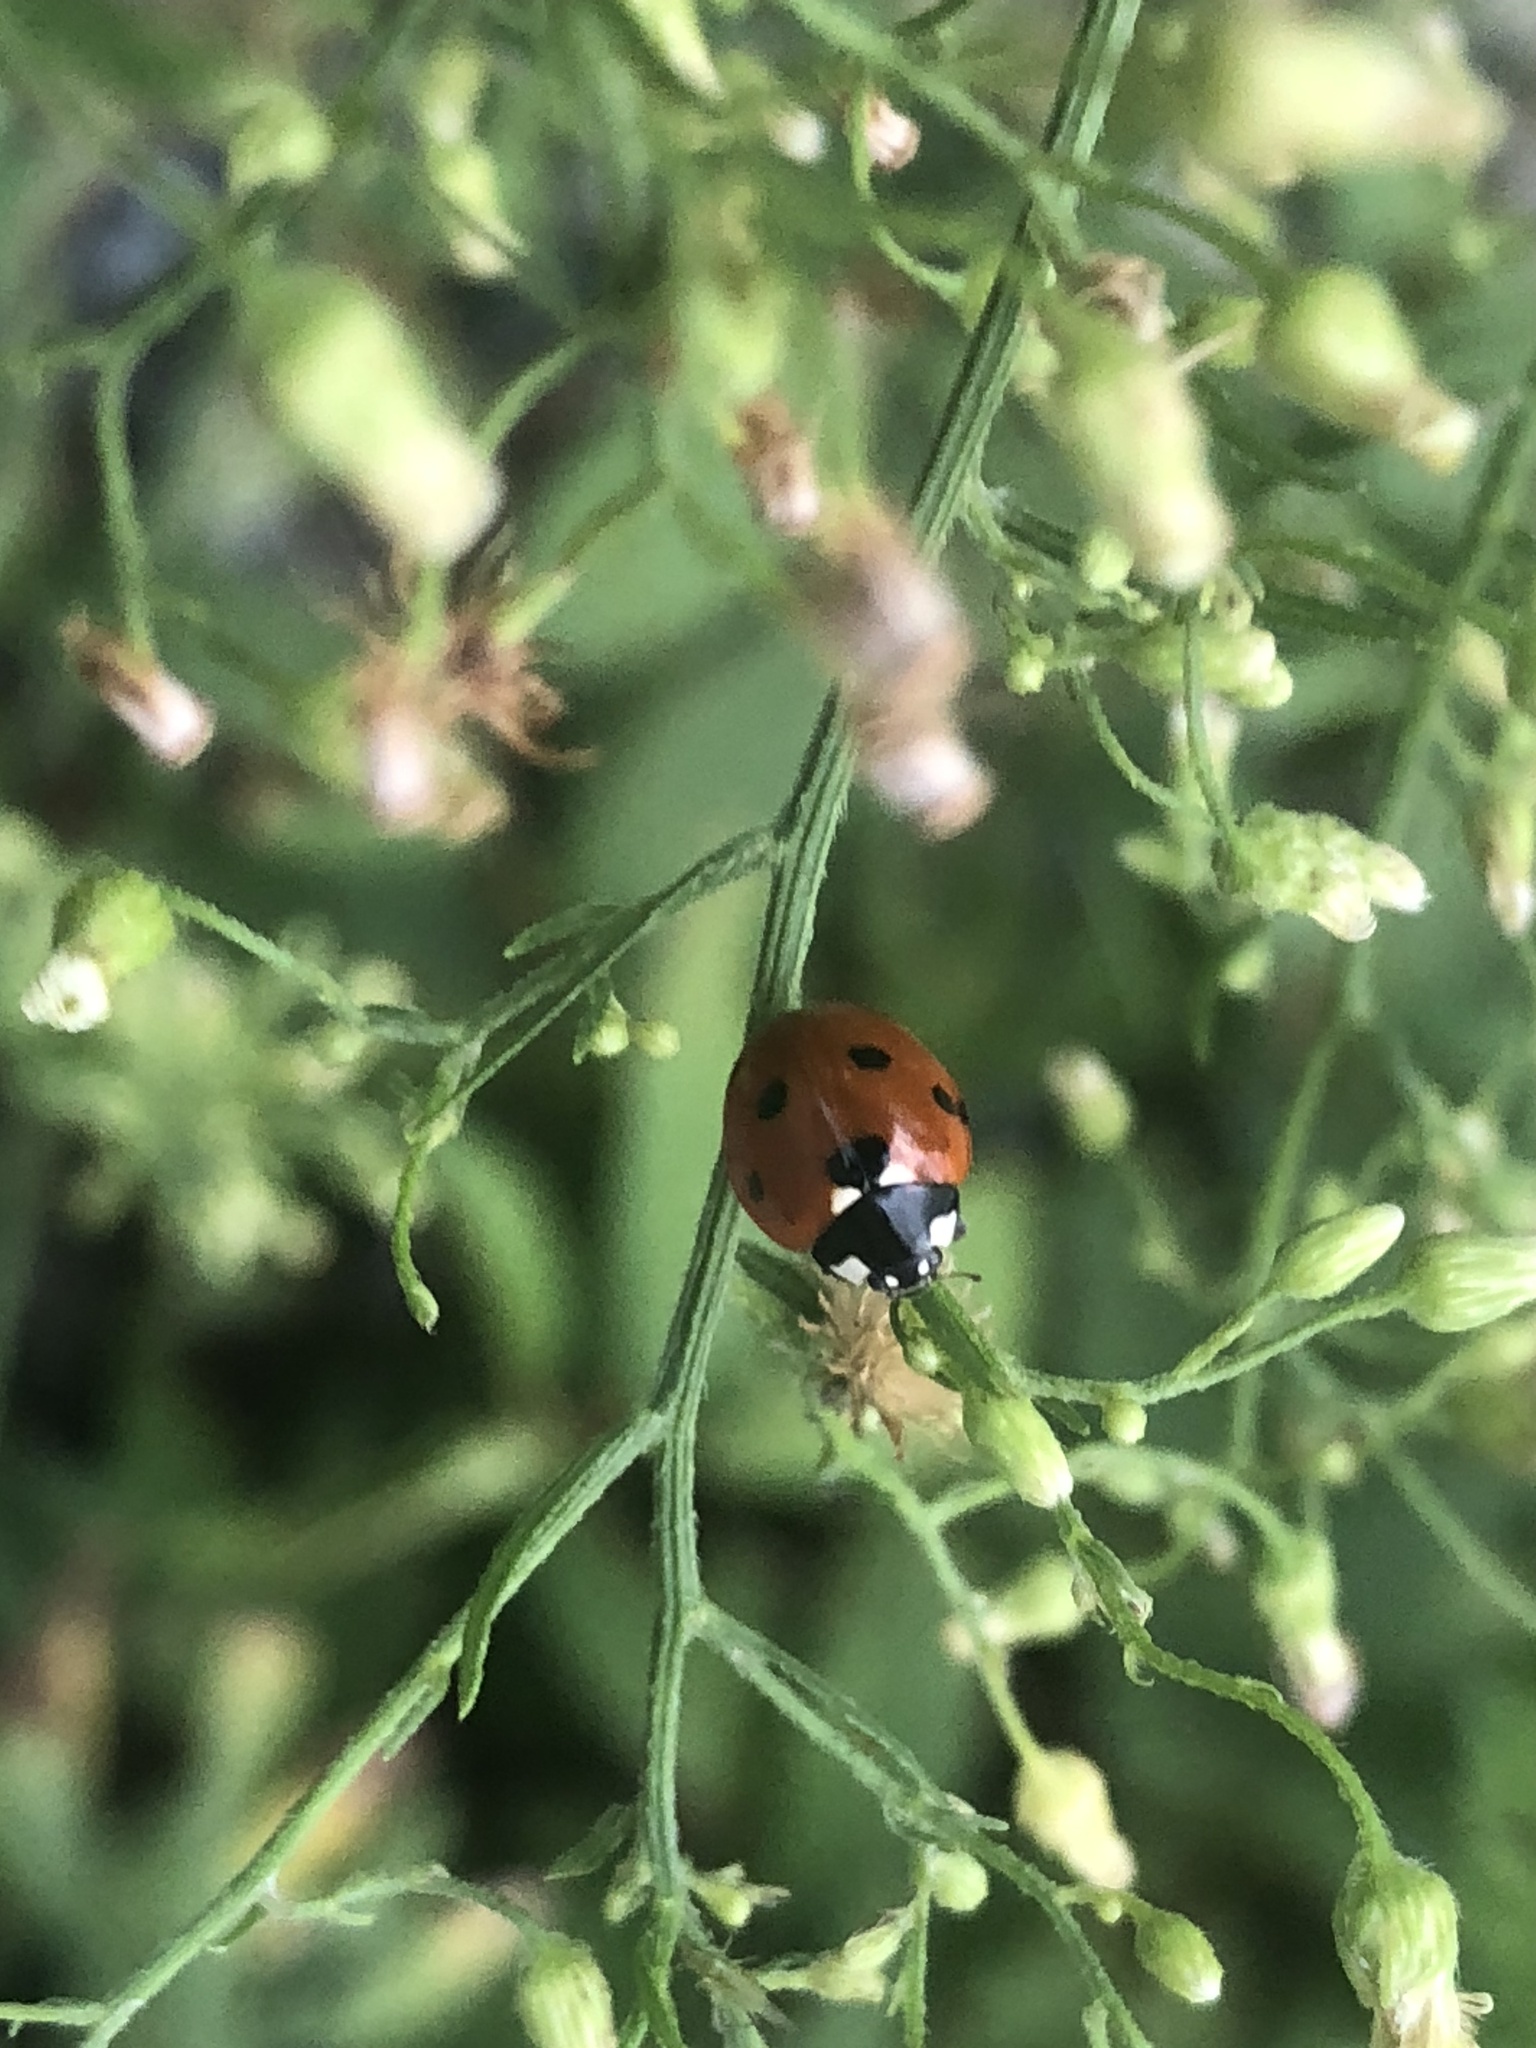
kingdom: Animalia
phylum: Arthropoda
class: Insecta
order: Coleoptera
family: Coccinellidae
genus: Coccinella
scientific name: Coccinella septempunctata
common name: Sevenspotted lady beetle
